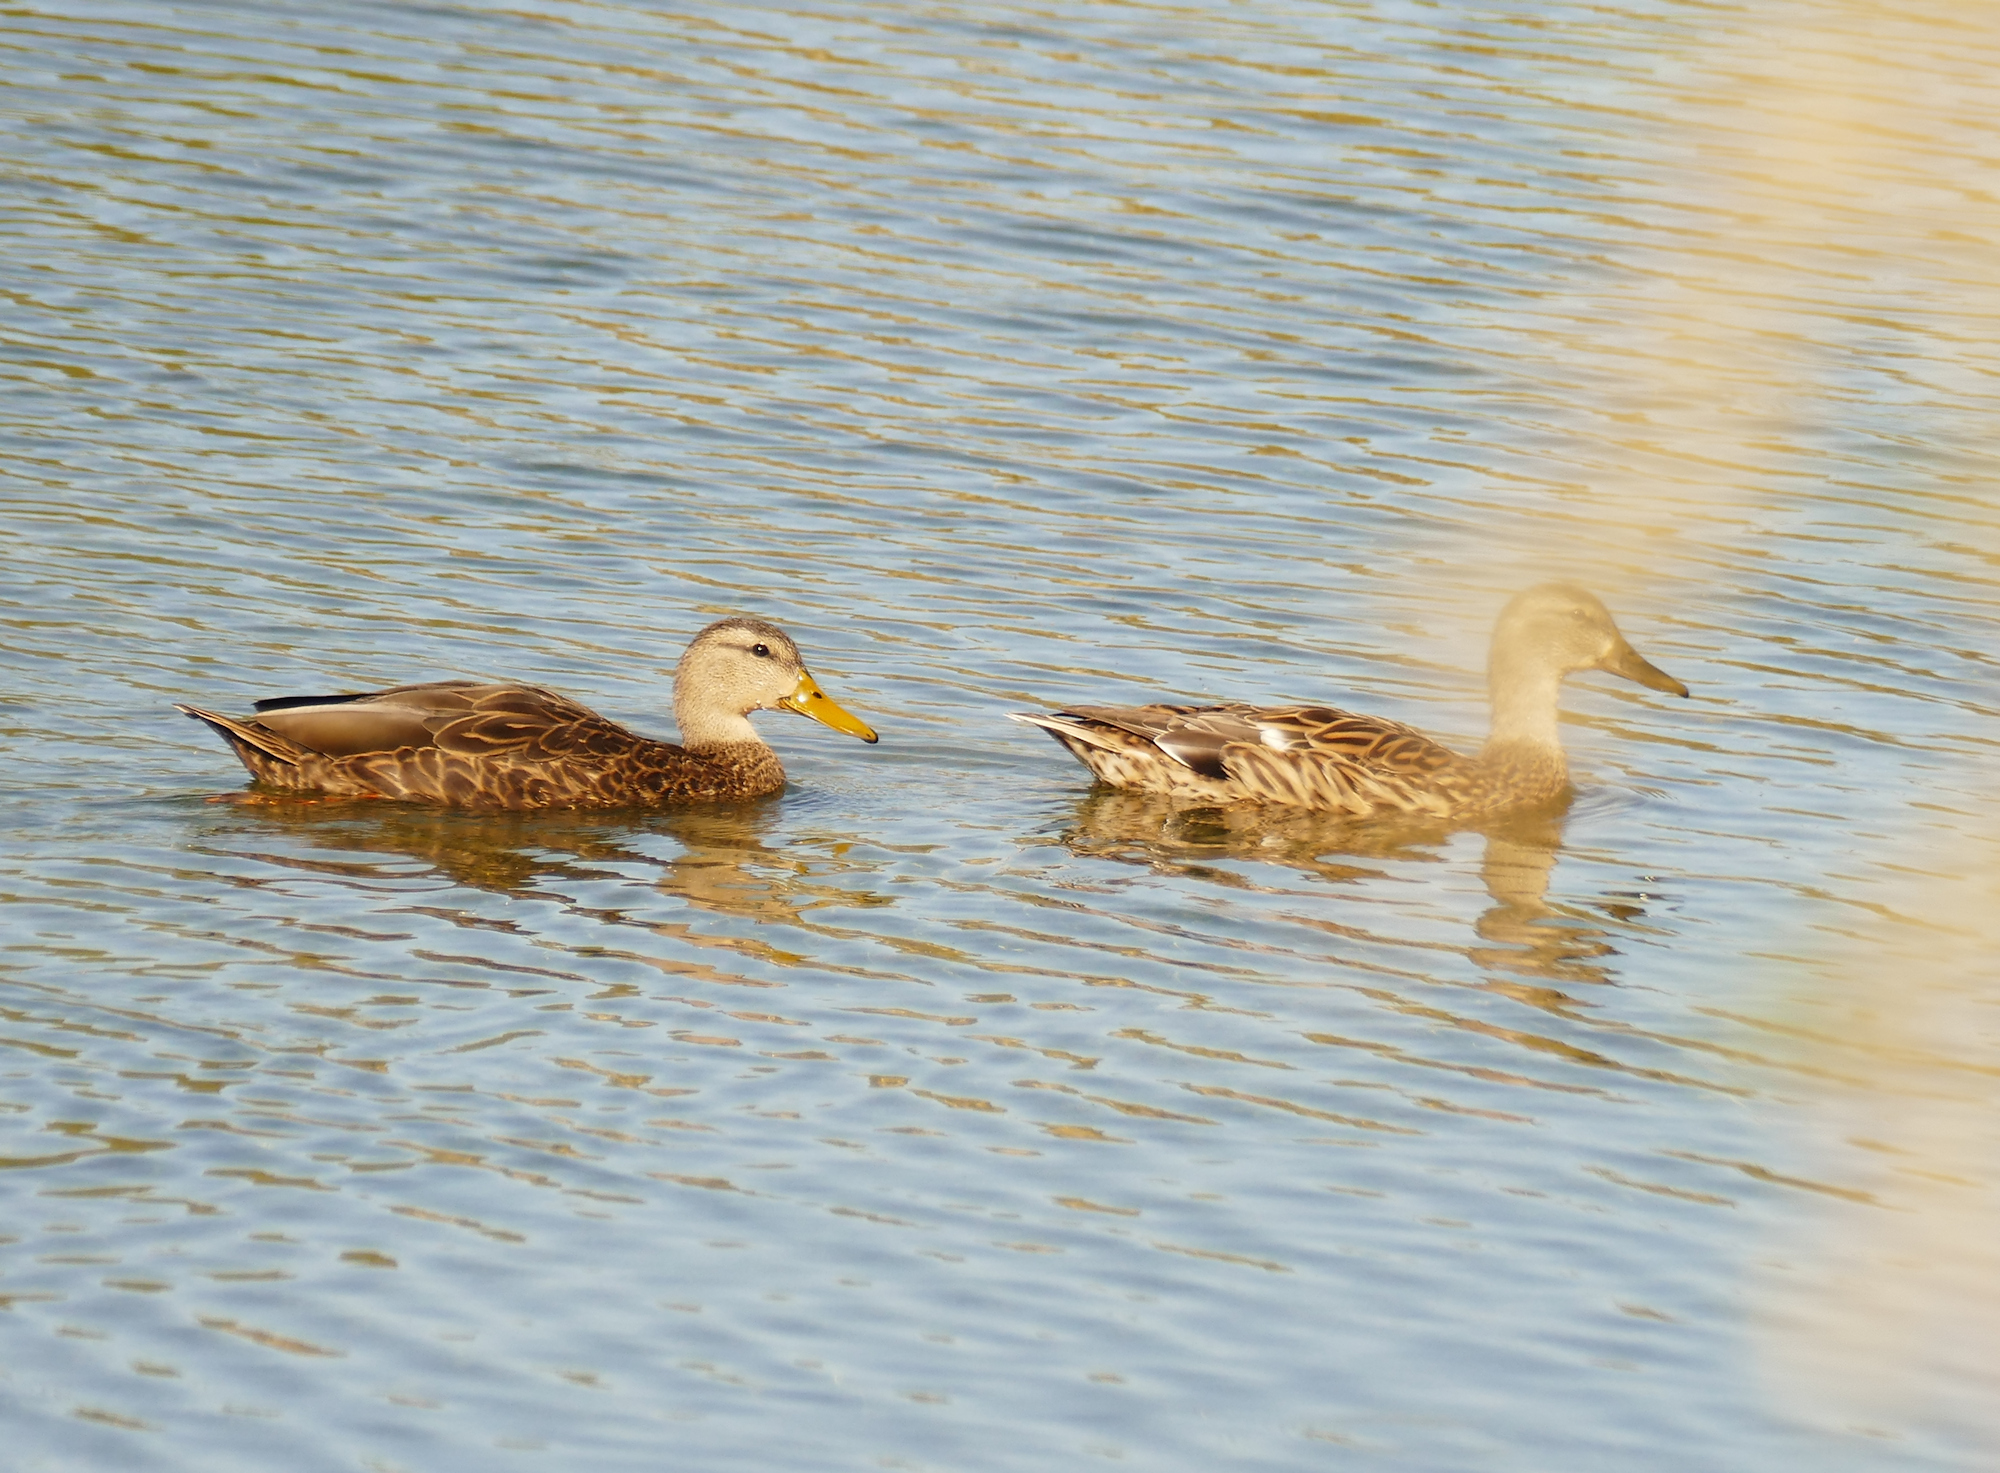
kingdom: Animalia
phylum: Chordata
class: Aves
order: Anseriformes
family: Anatidae
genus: Anas
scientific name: Anas diazi
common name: Mexican duck
